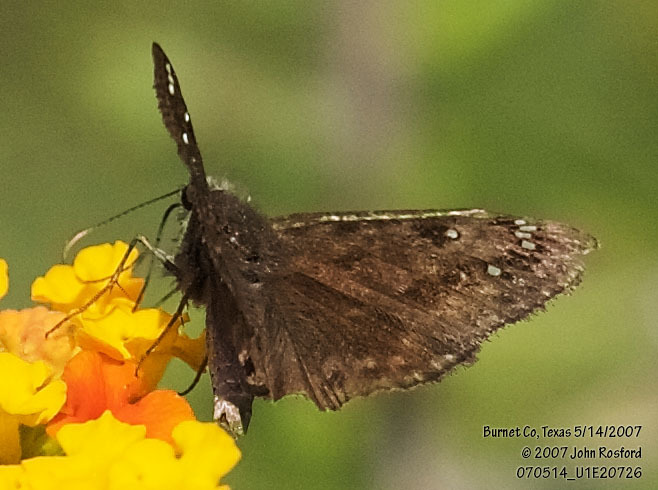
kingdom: Animalia
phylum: Arthropoda
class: Insecta
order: Lepidoptera
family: Hesperiidae
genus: Erynnis
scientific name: Erynnis horatius
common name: Horace's duskywing
